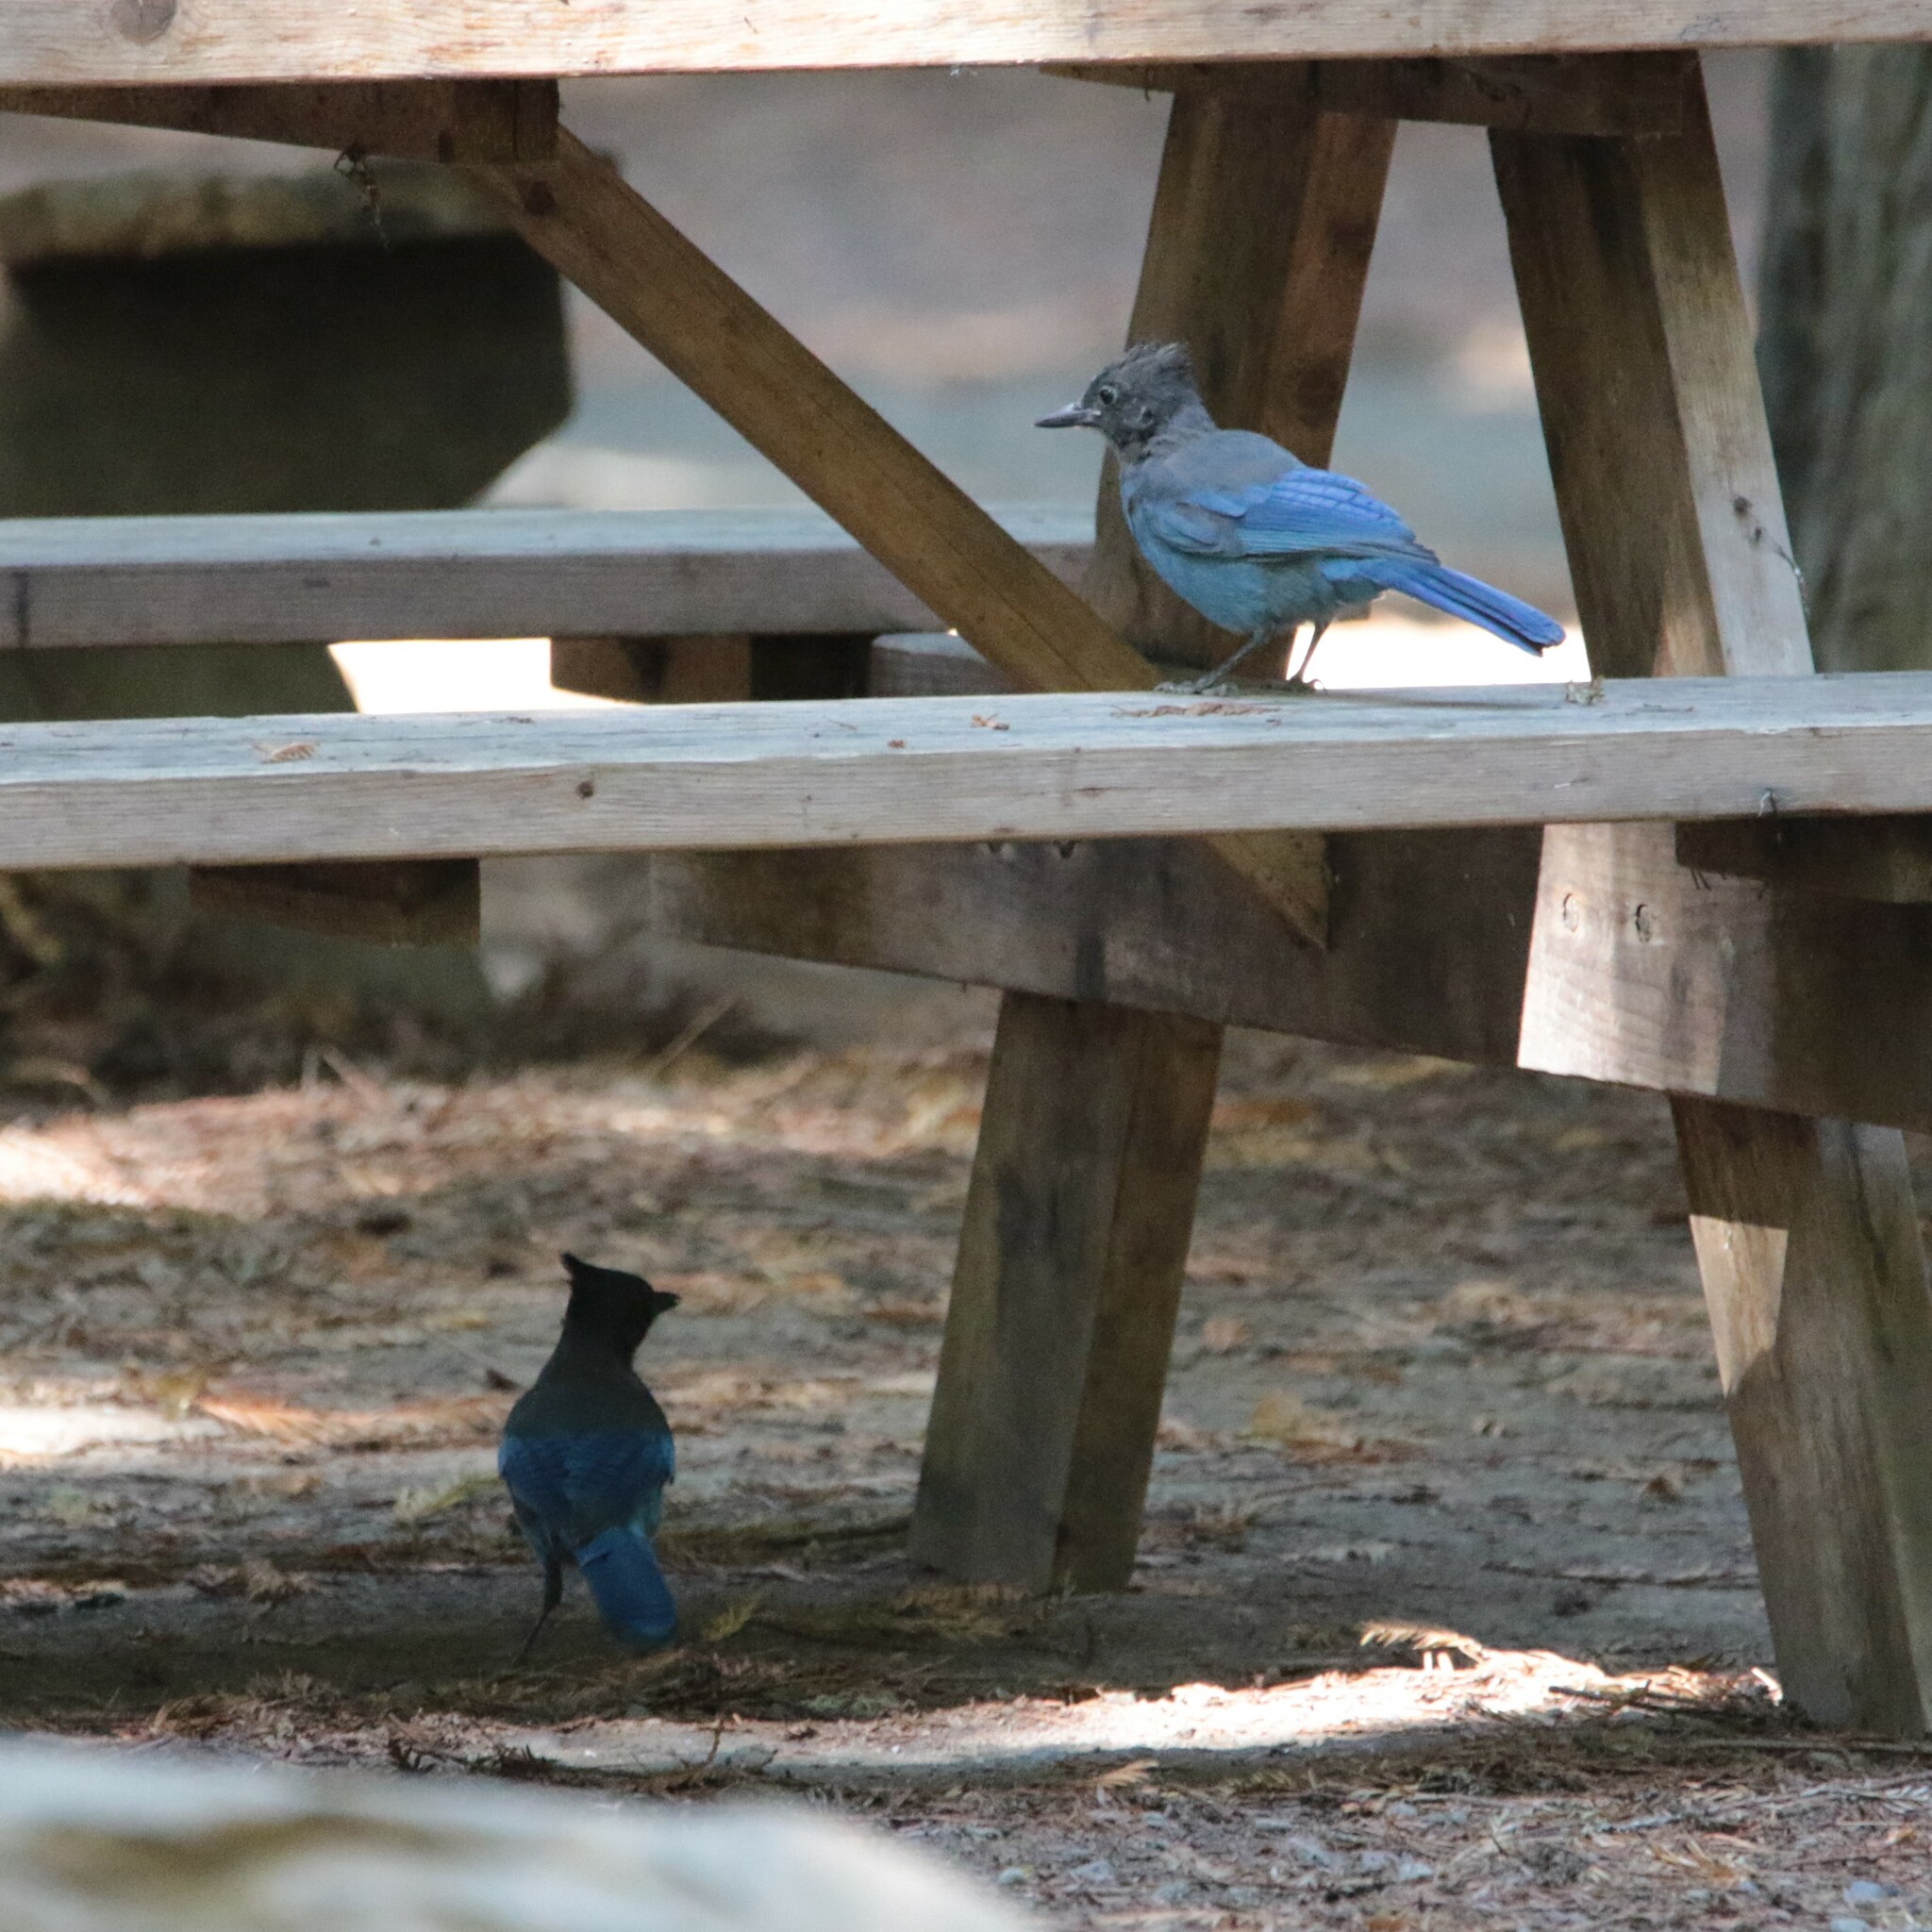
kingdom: Animalia
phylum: Chordata
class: Aves
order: Passeriformes
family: Corvidae
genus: Cyanocitta
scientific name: Cyanocitta stelleri
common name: Steller's jay
